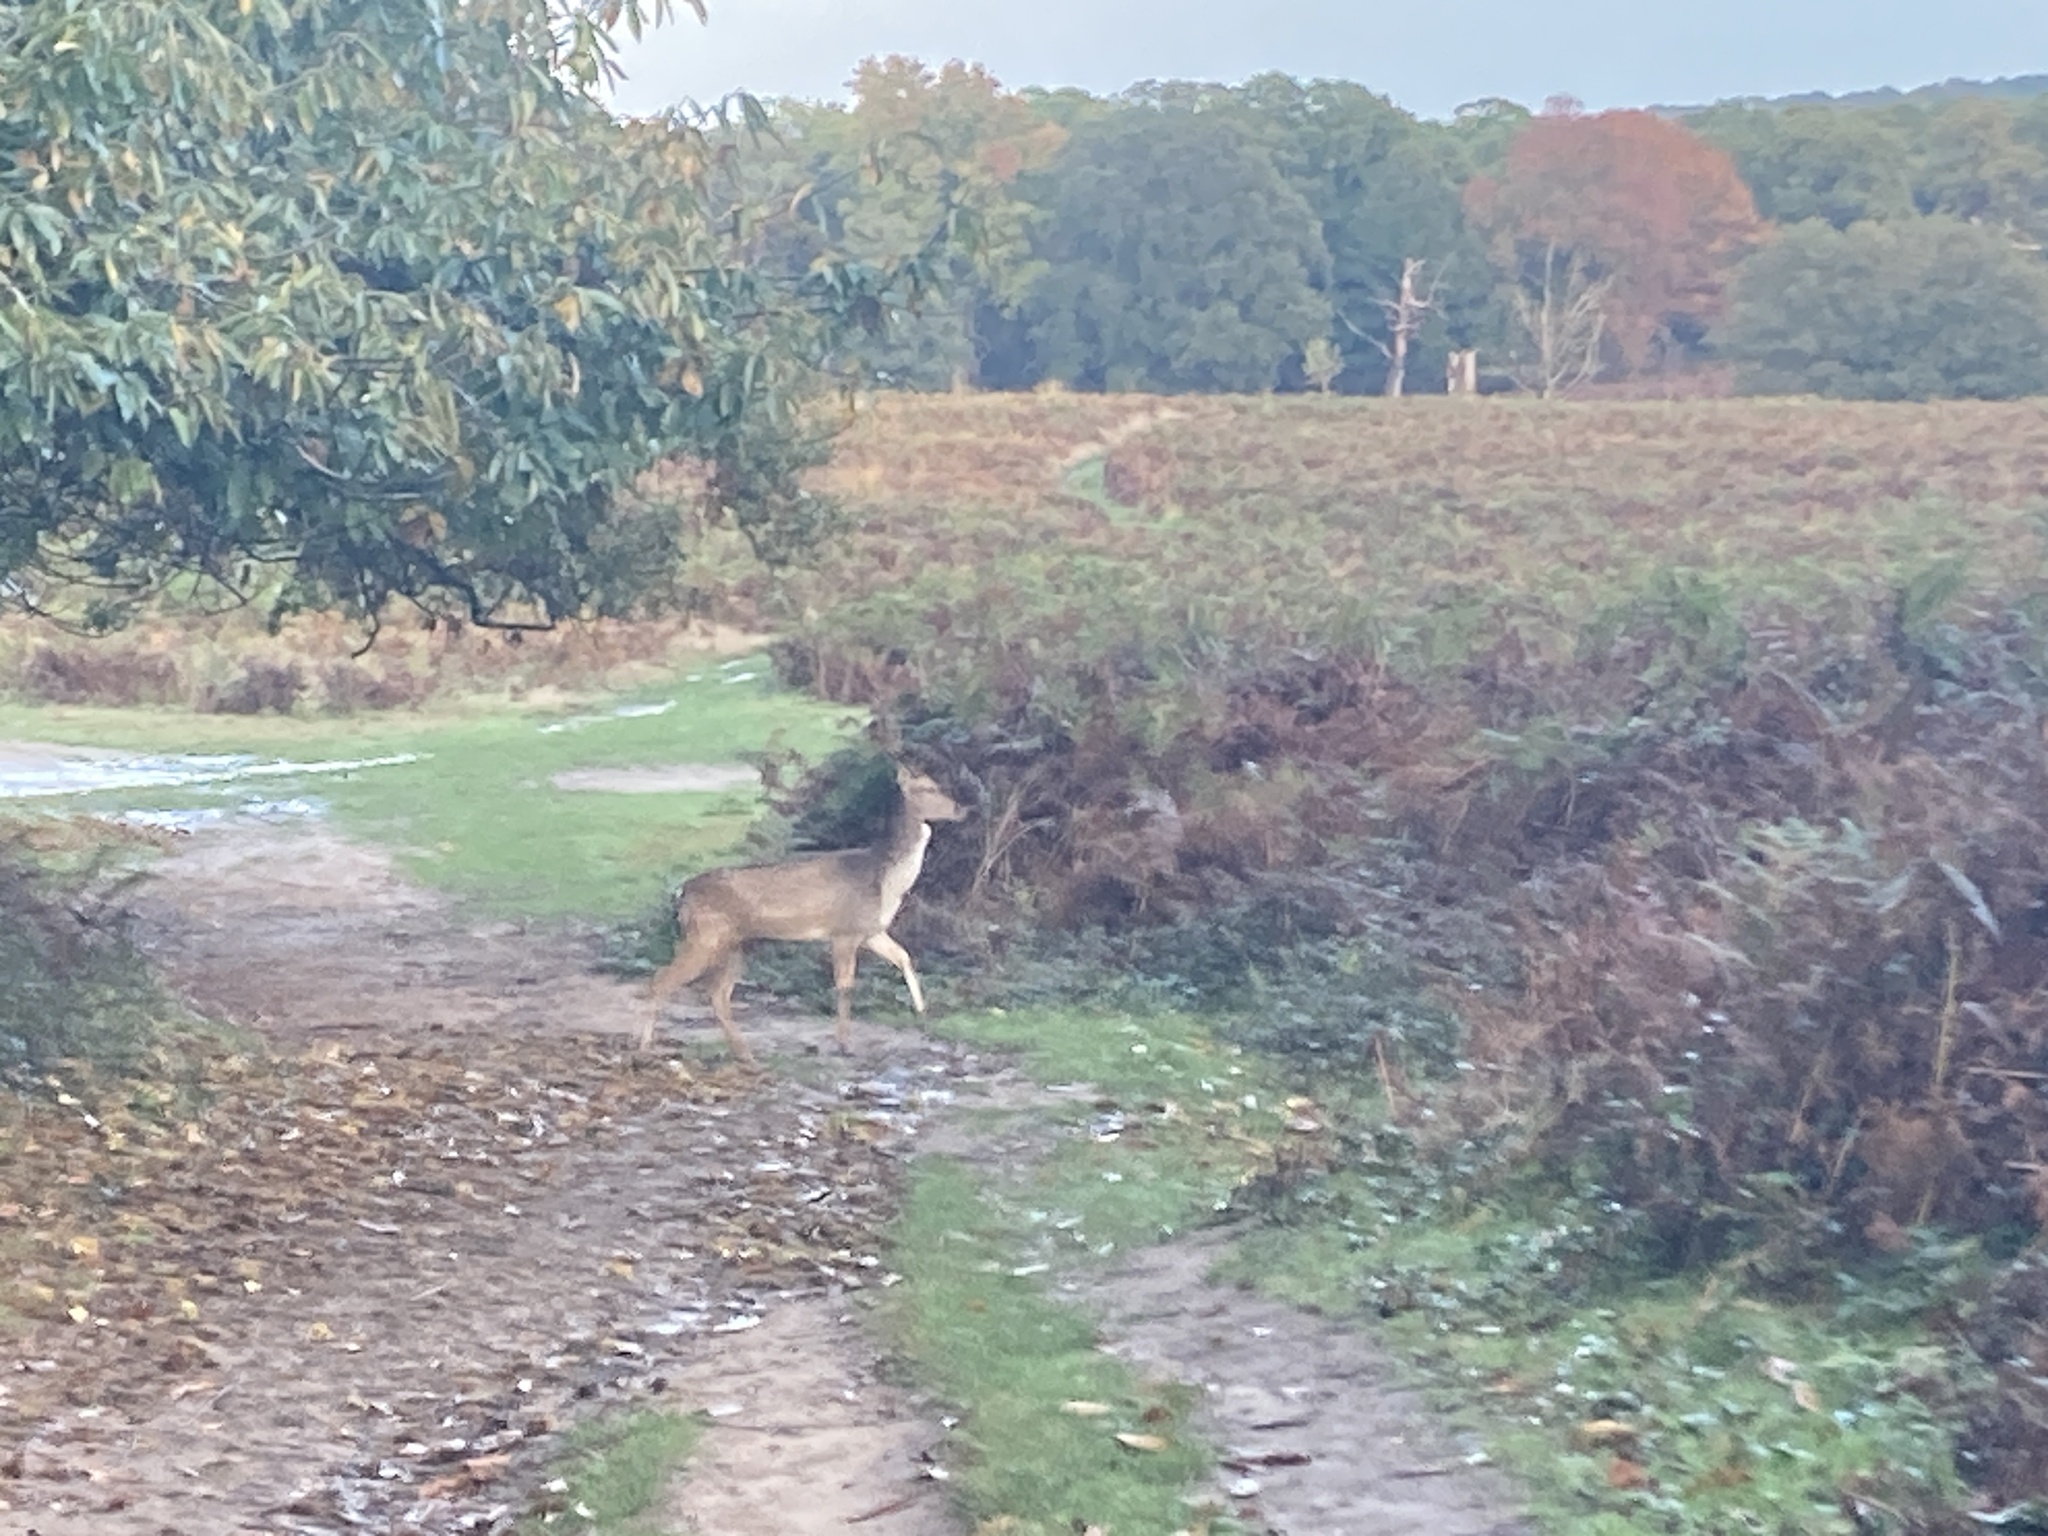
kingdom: Animalia
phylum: Chordata
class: Mammalia
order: Artiodactyla
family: Cervidae
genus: Dama
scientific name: Dama dama
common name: Fallow deer
